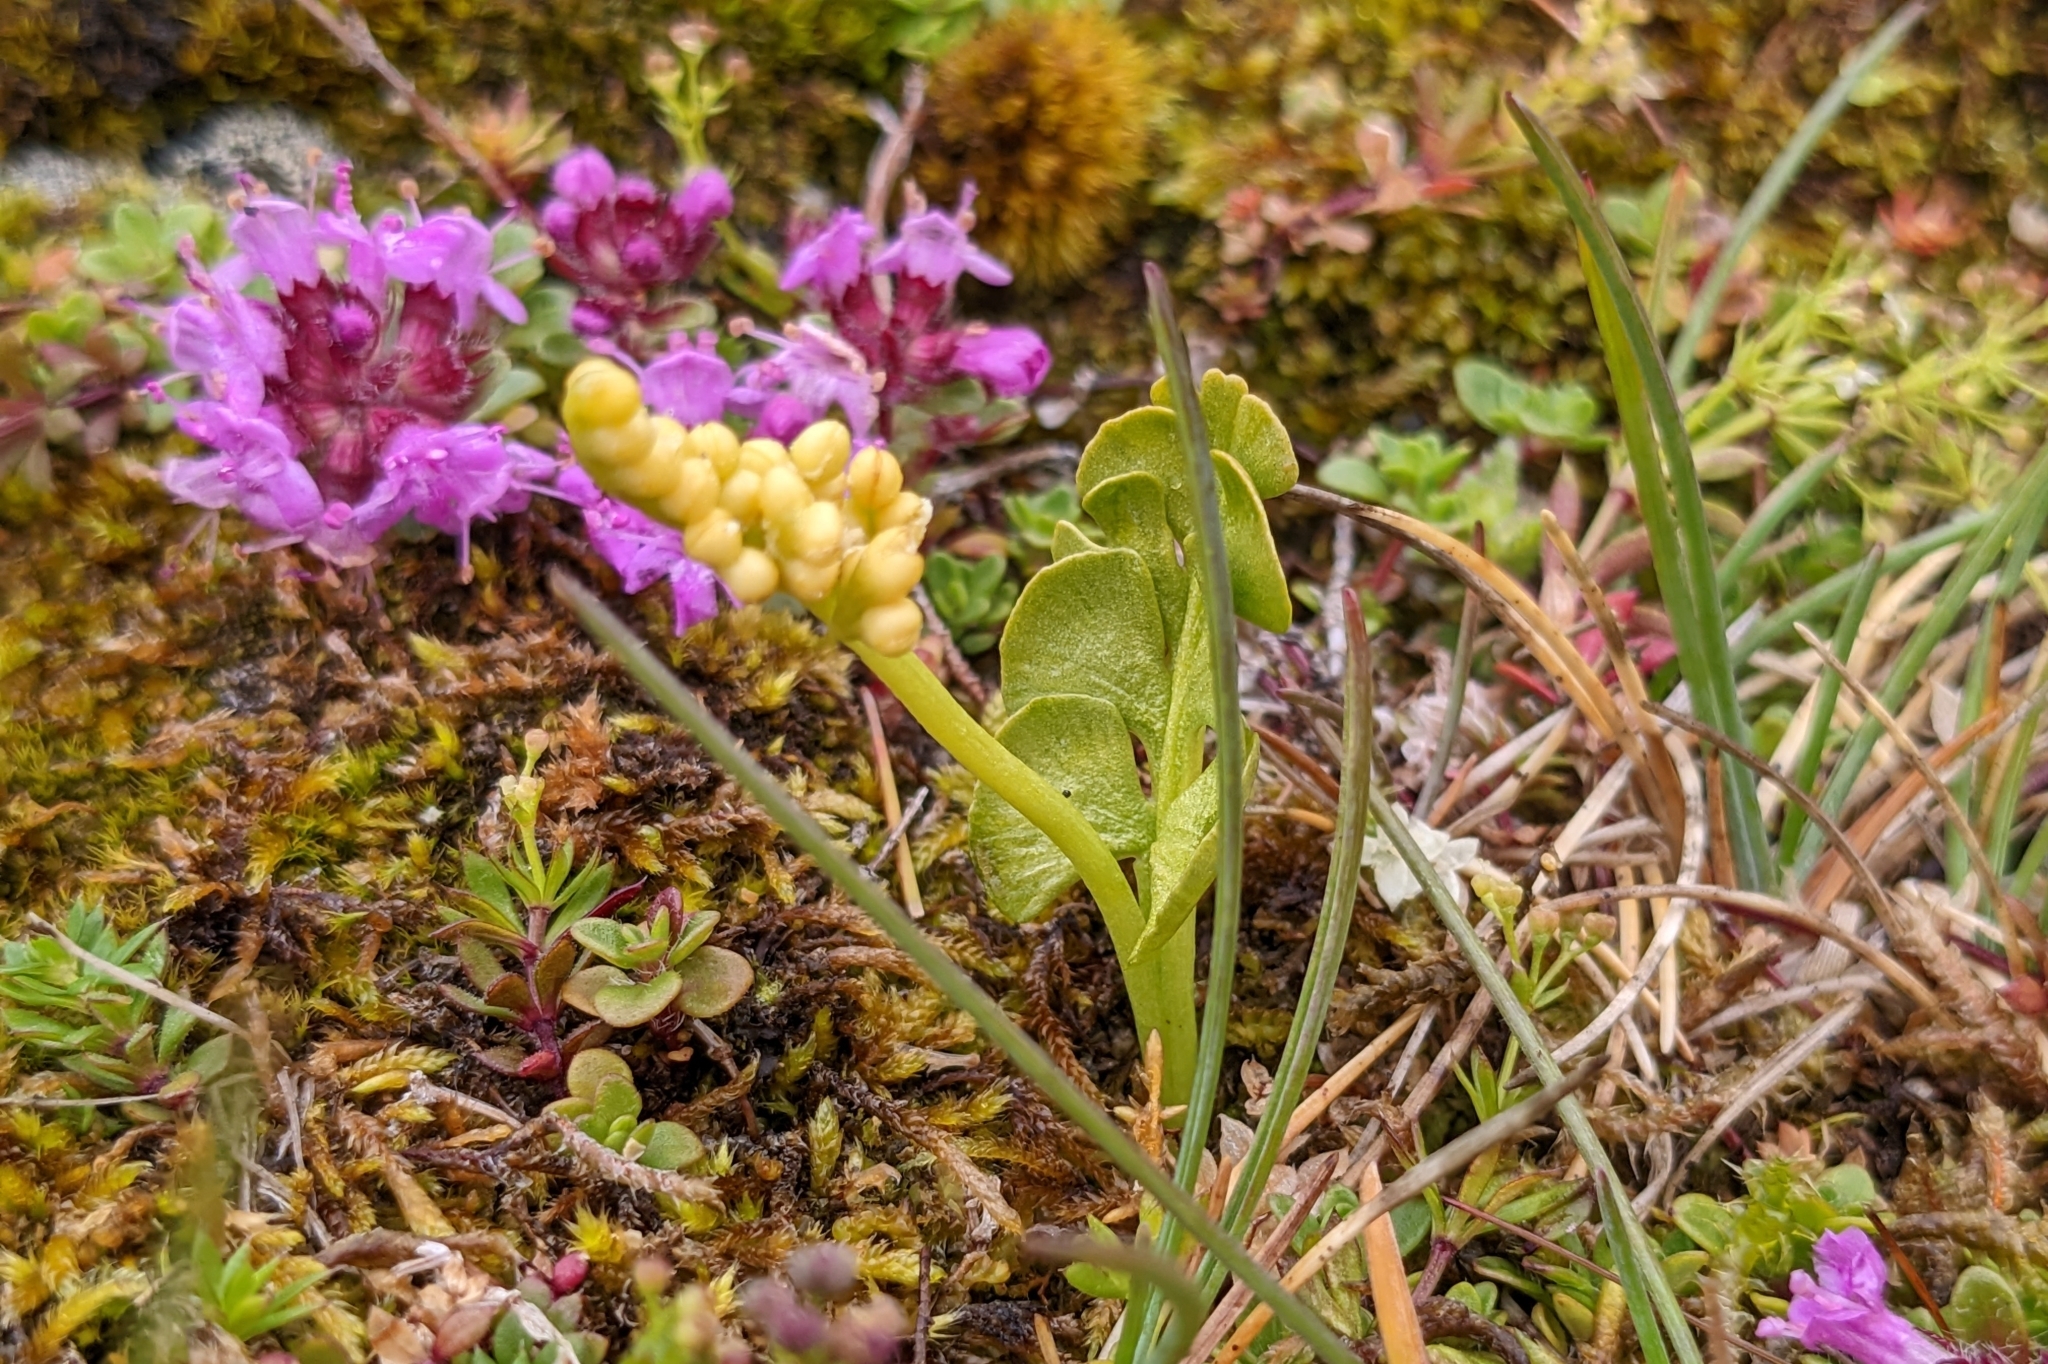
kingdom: Plantae
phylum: Tracheophyta
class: Polypodiopsida
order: Ophioglossales
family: Ophioglossaceae
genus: Botrychium
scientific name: Botrychium lunaria
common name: Moonwort
